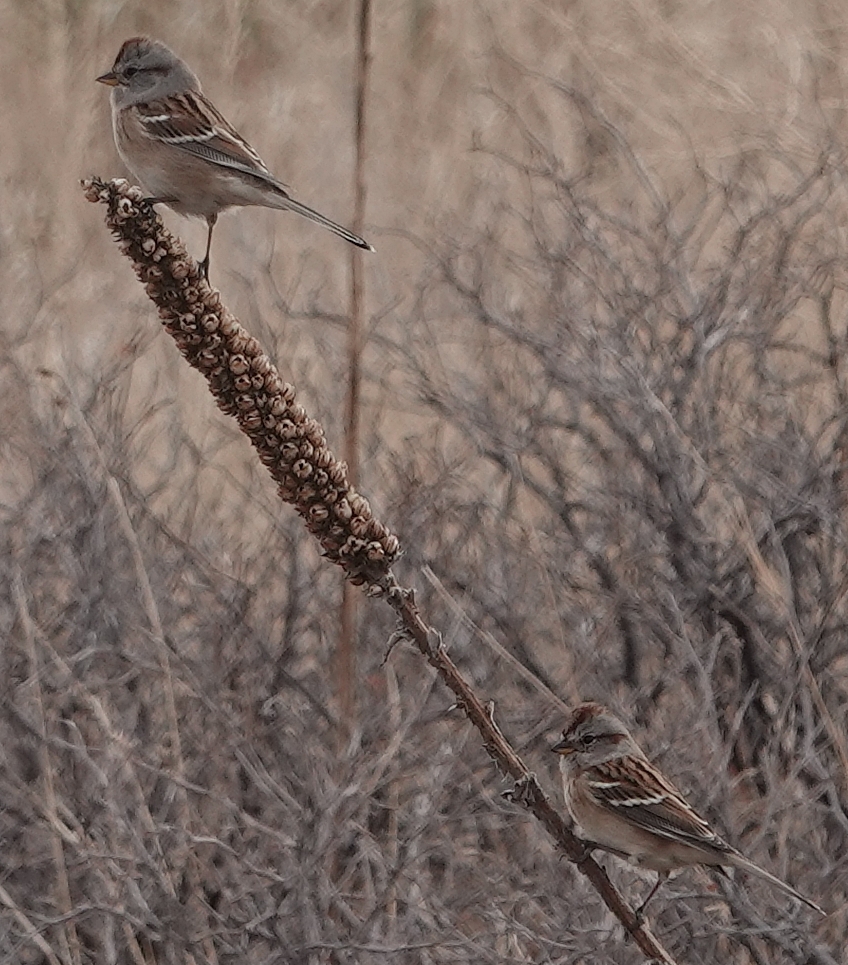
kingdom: Animalia
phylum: Chordata
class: Aves
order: Passeriformes
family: Passerellidae
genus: Spizelloides
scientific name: Spizelloides arborea
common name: American tree sparrow
